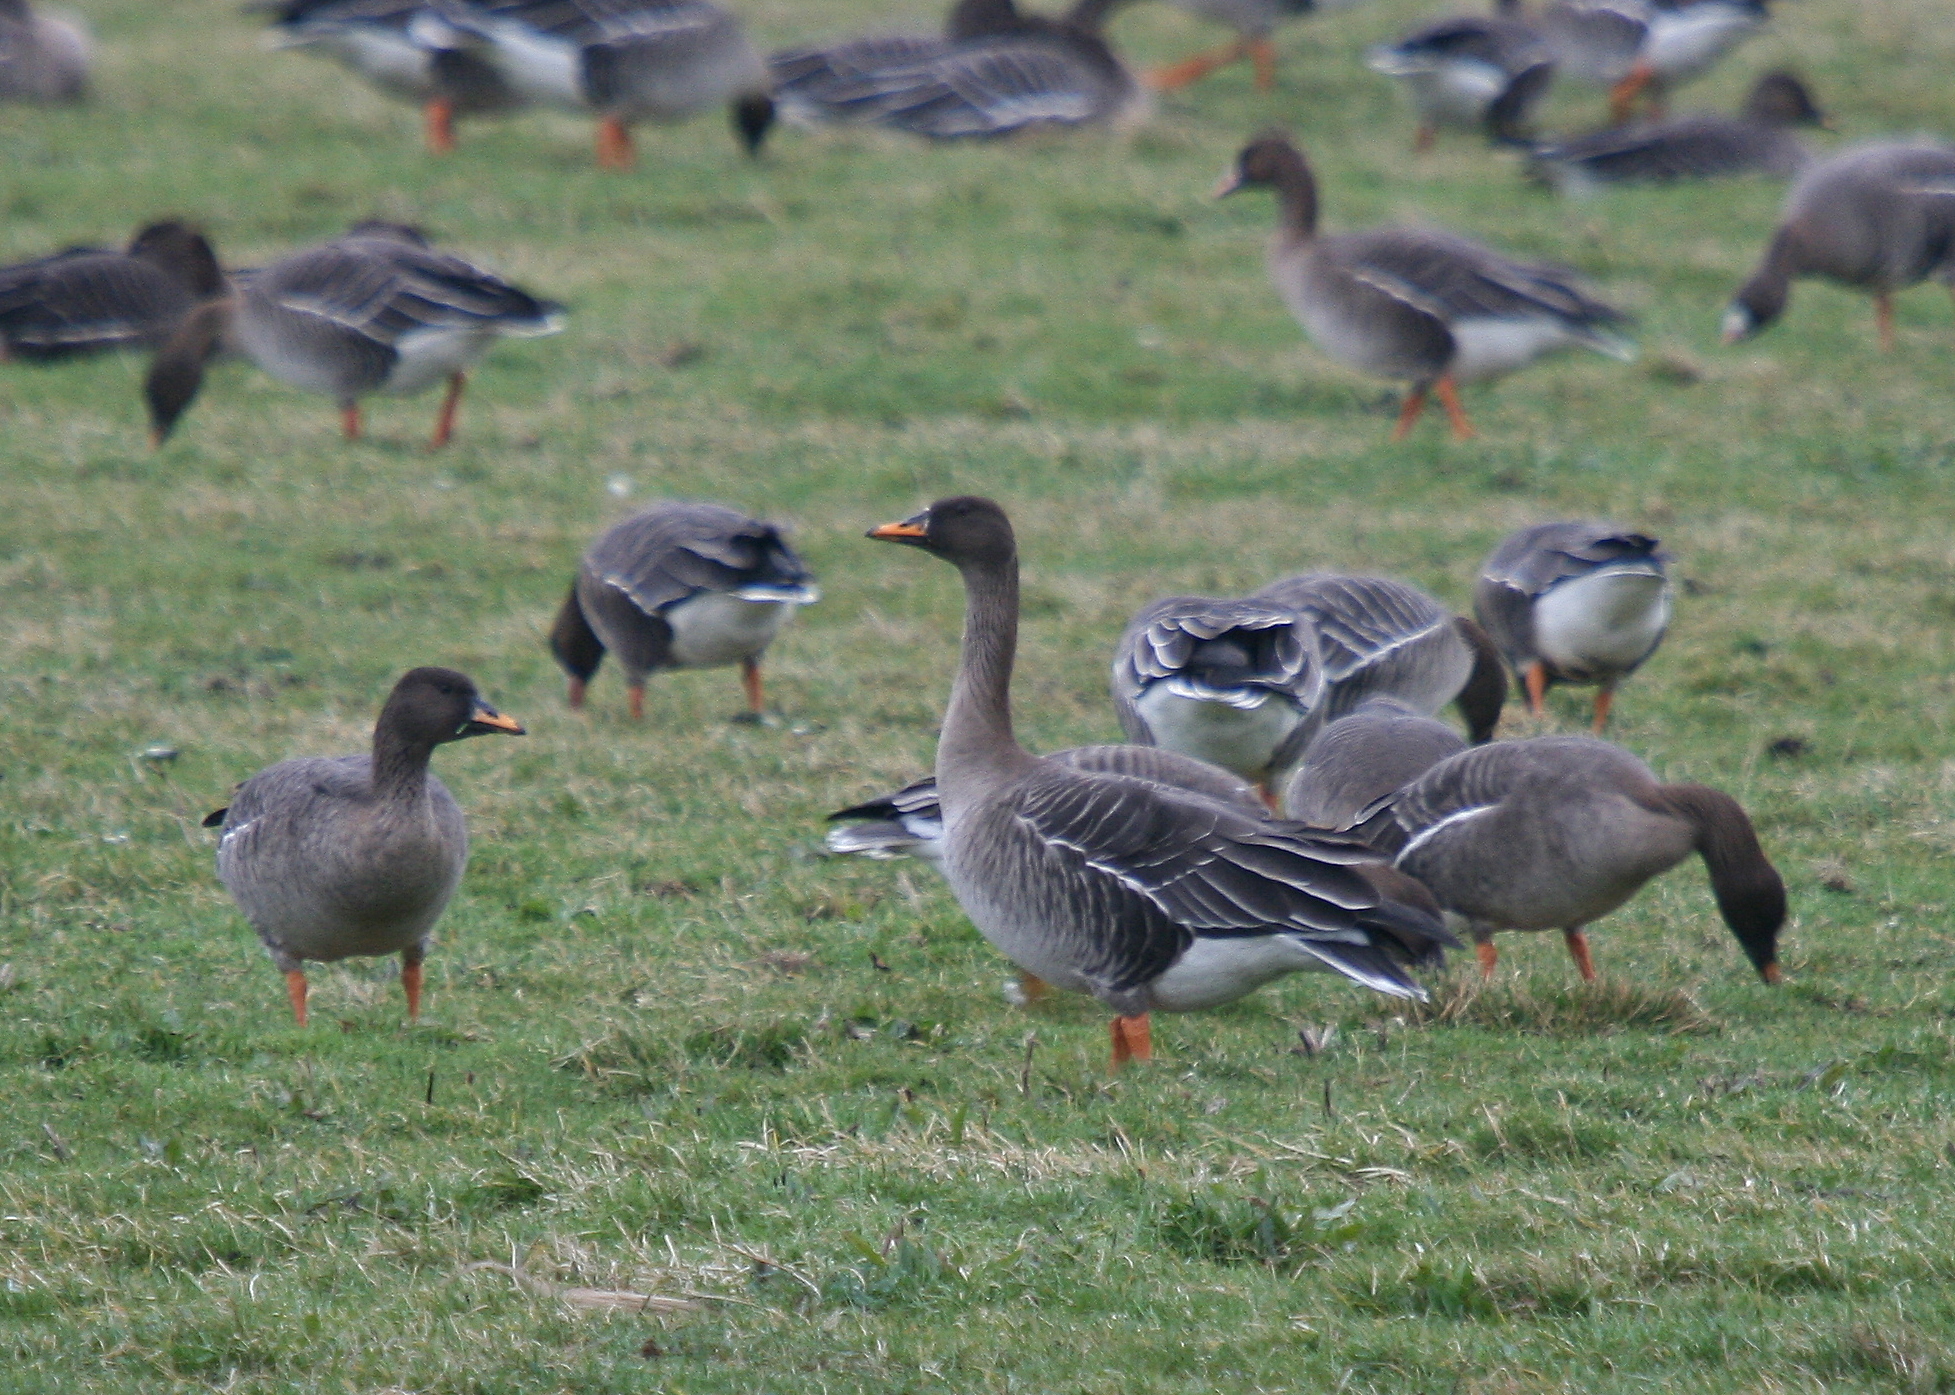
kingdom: Animalia
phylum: Chordata
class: Aves
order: Anseriformes
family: Anatidae
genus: Anser
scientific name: Anser fabalis
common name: Bean goose
